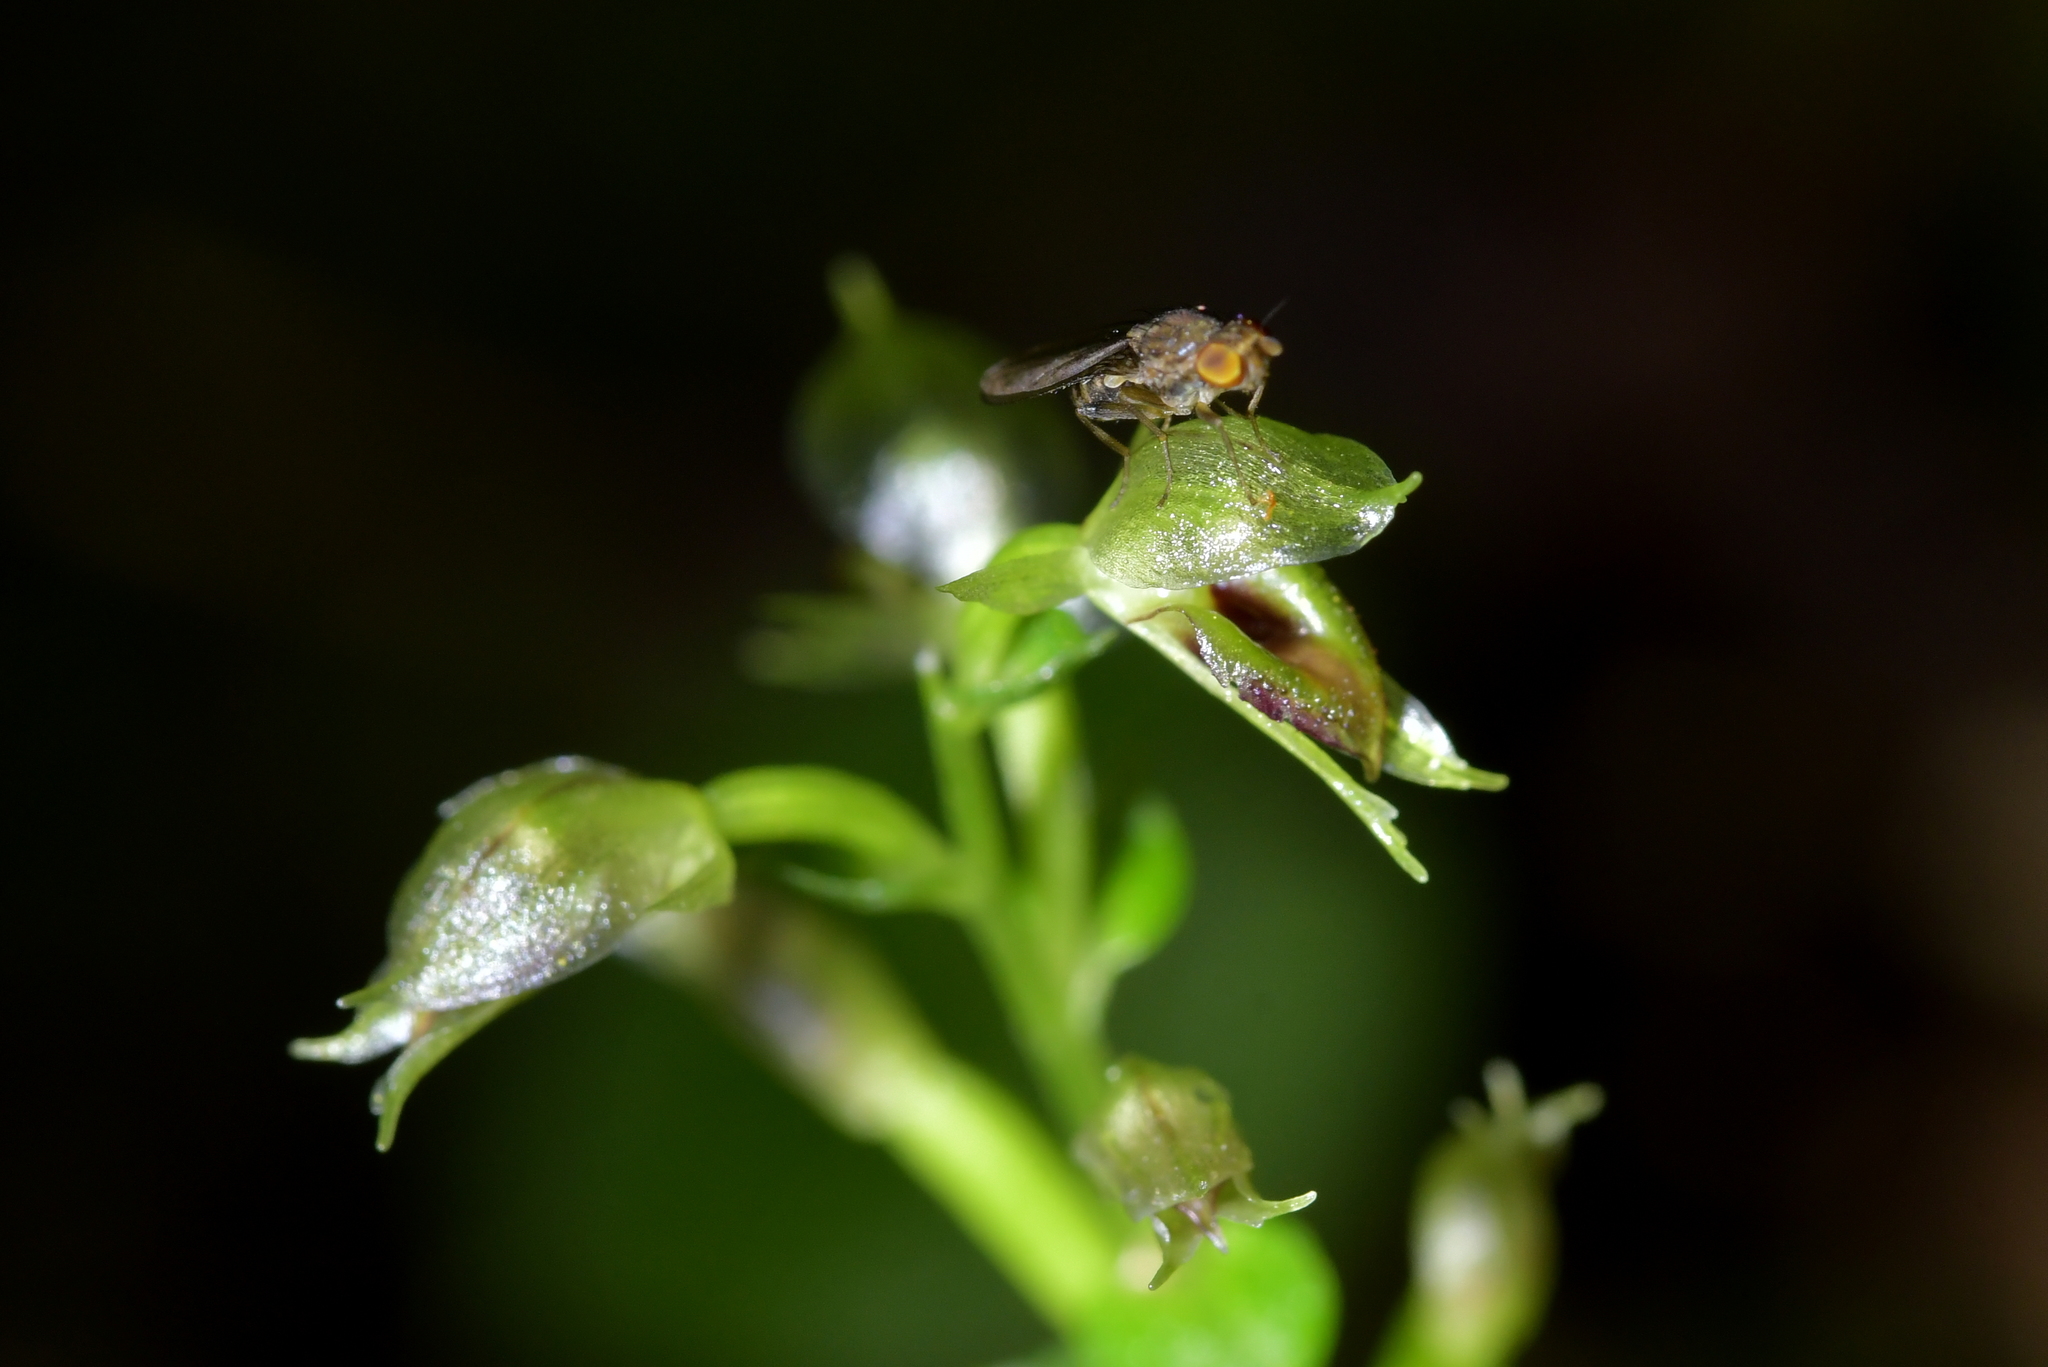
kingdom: Plantae
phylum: Tracheophyta
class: Liliopsida
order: Asparagales
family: Orchidaceae
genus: Acianthus
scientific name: Acianthus sinclairii
